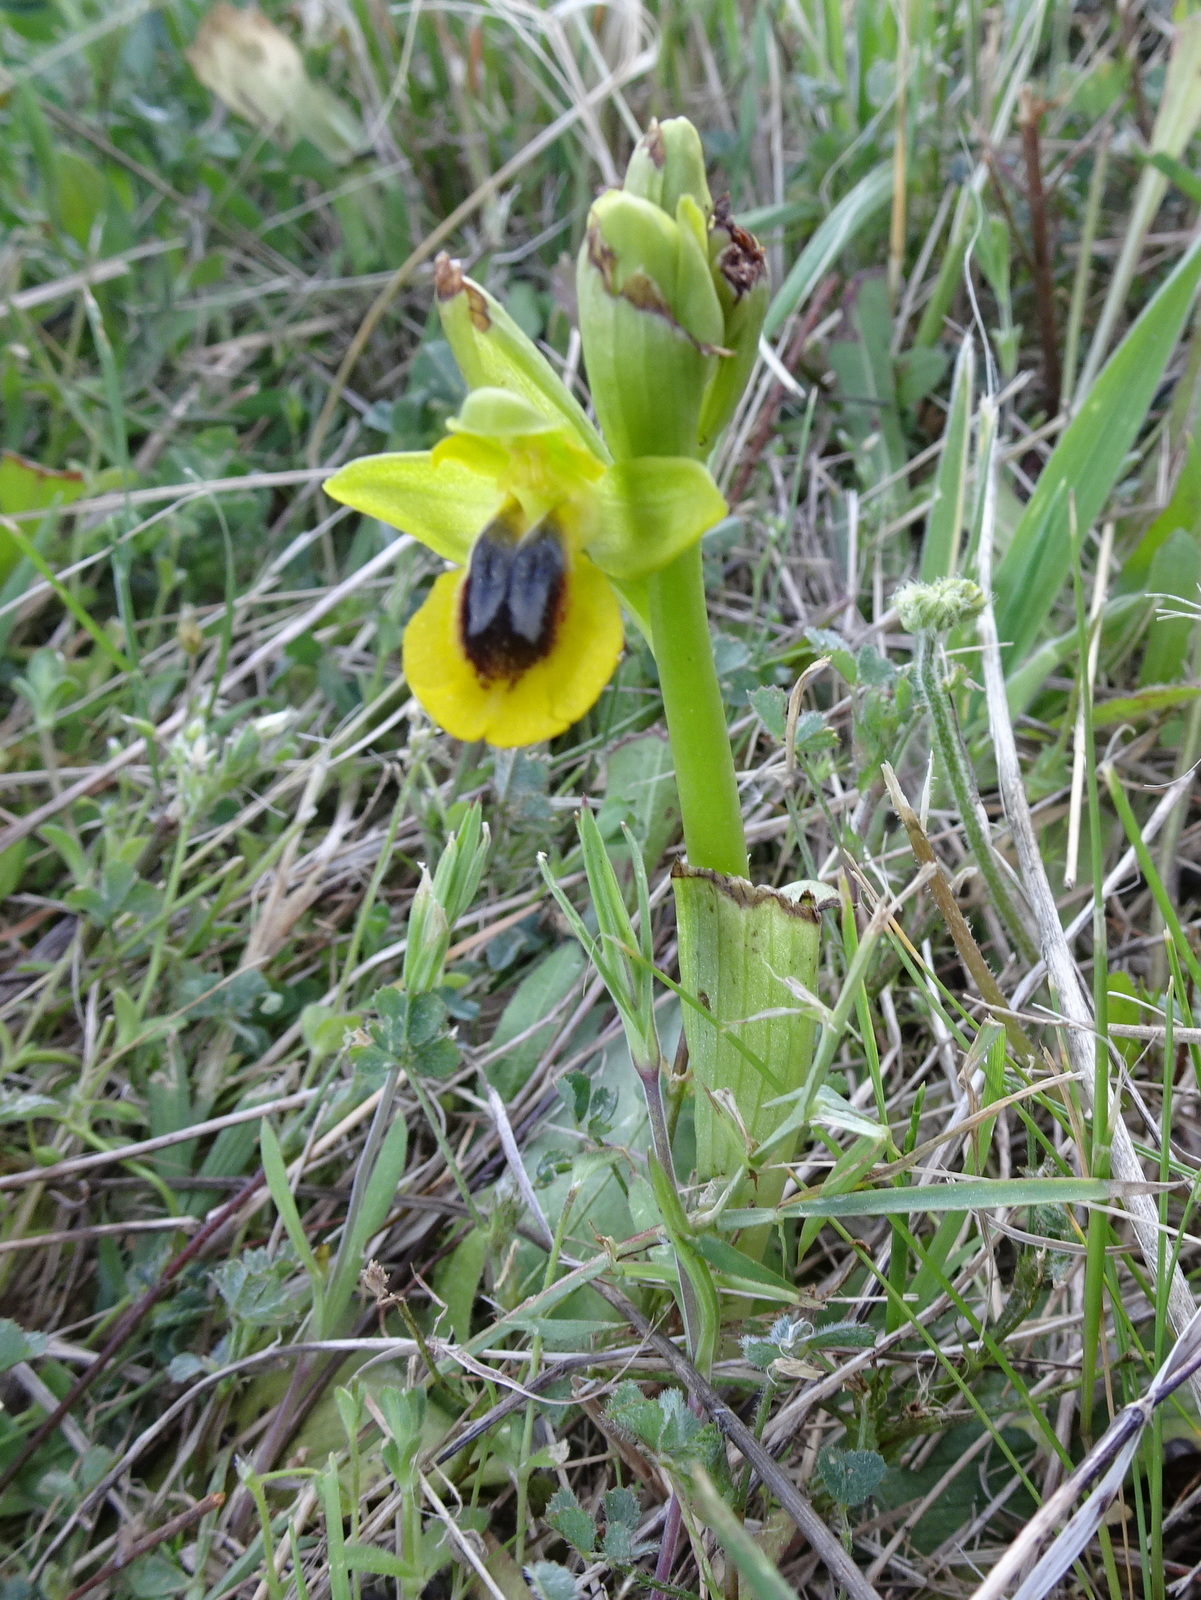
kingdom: Plantae
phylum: Tracheophyta
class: Liliopsida
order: Asparagales
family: Orchidaceae
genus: Ophrys
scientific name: Ophrys lutea
